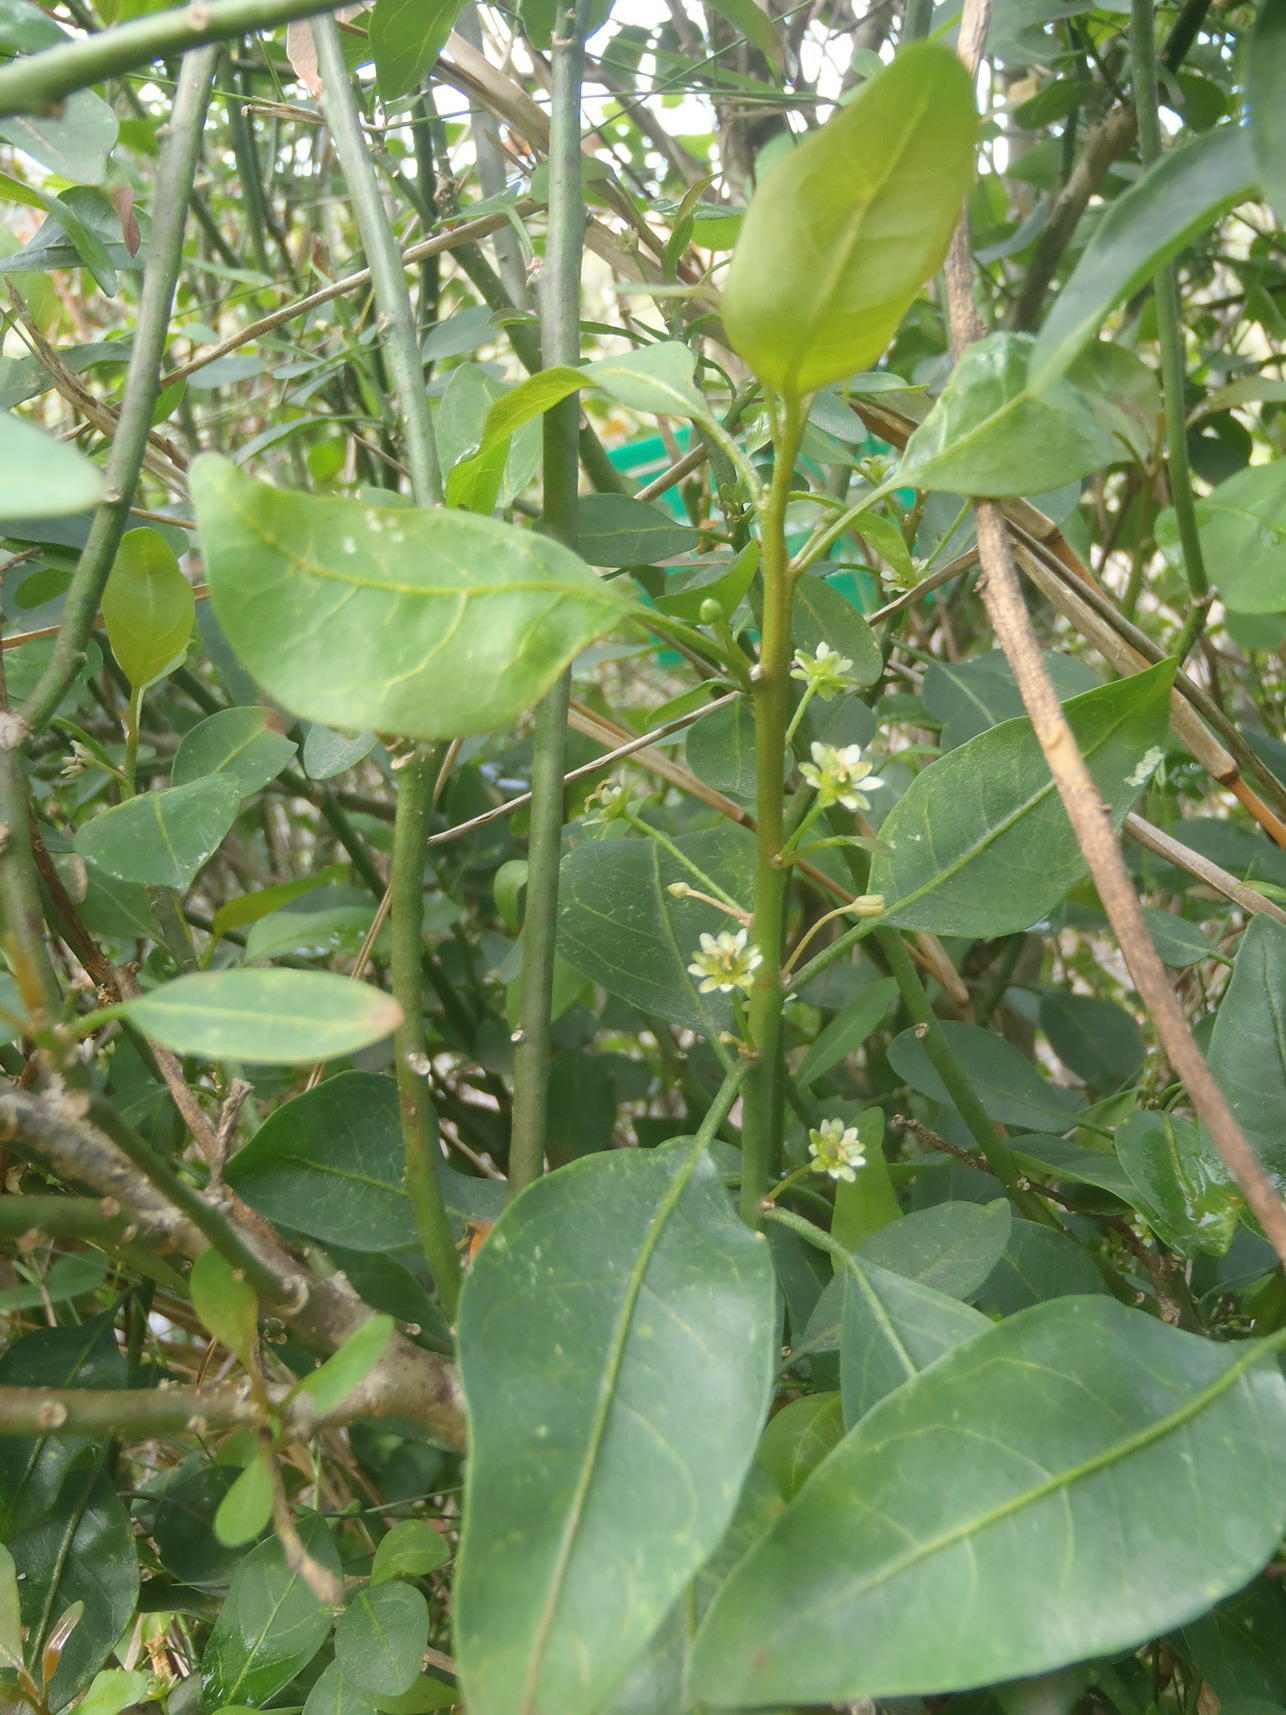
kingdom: Plantae
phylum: Tracheophyta
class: Magnoliopsida
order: Malpighiales
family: Peraceae
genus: Clutia
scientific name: Clutia pulchella
